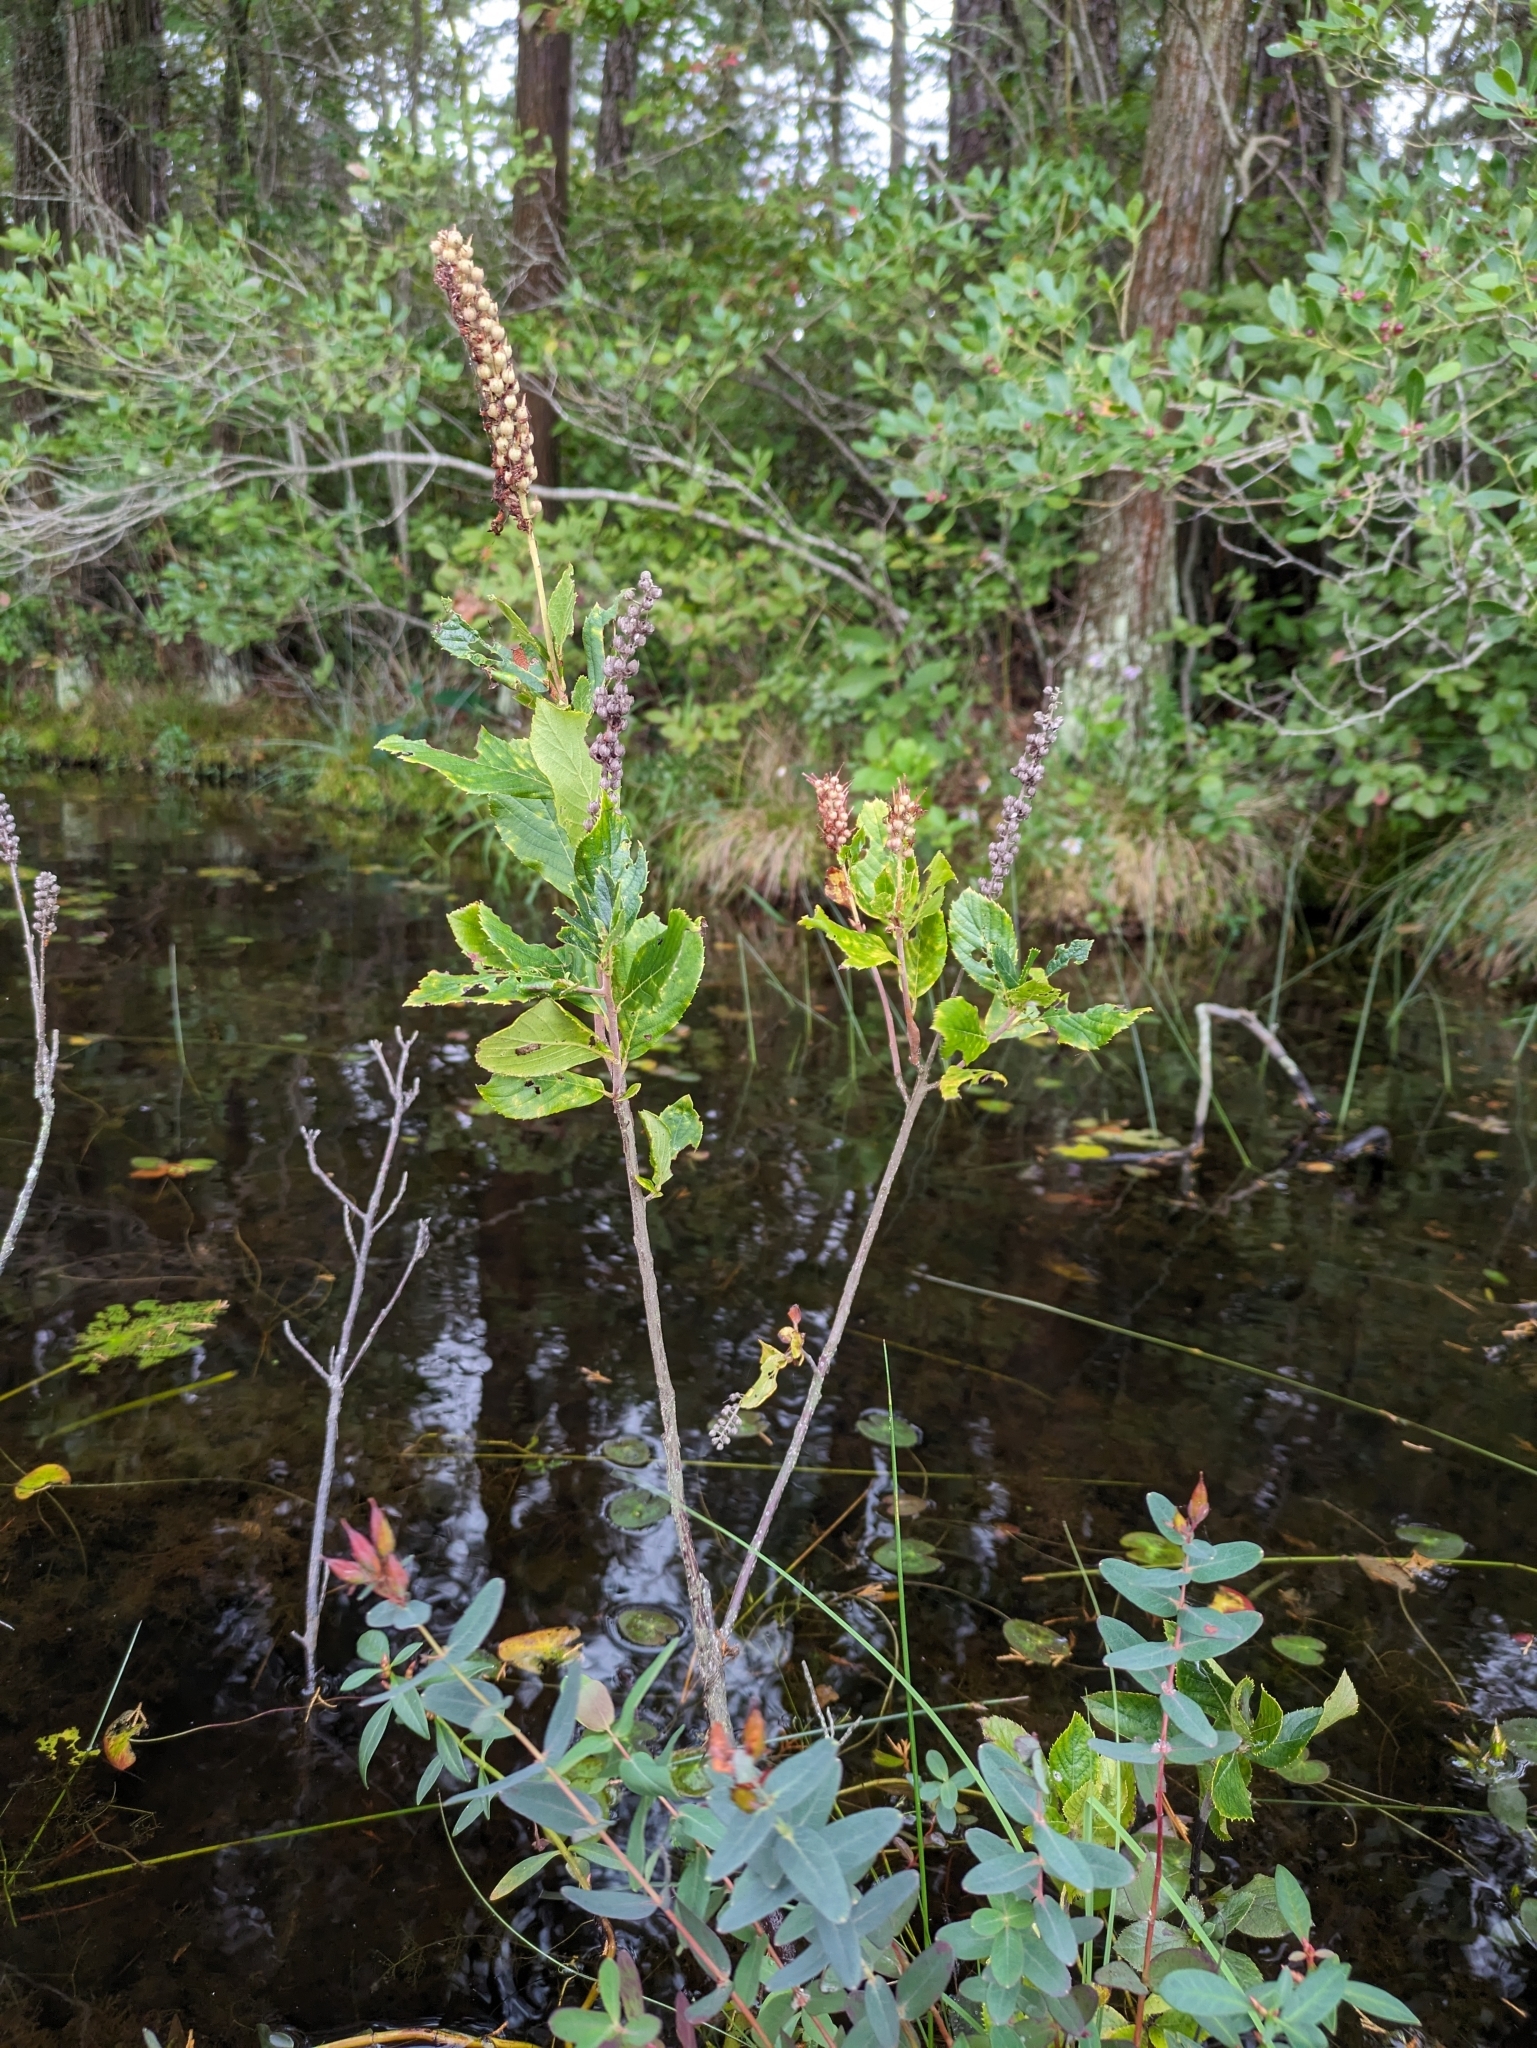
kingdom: Plantae
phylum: Tracheophyta
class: Magnoliopsida
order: Ericales
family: Clethraceae
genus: Clethra
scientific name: Clethra alnifolia
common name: Sweet pepperbush
